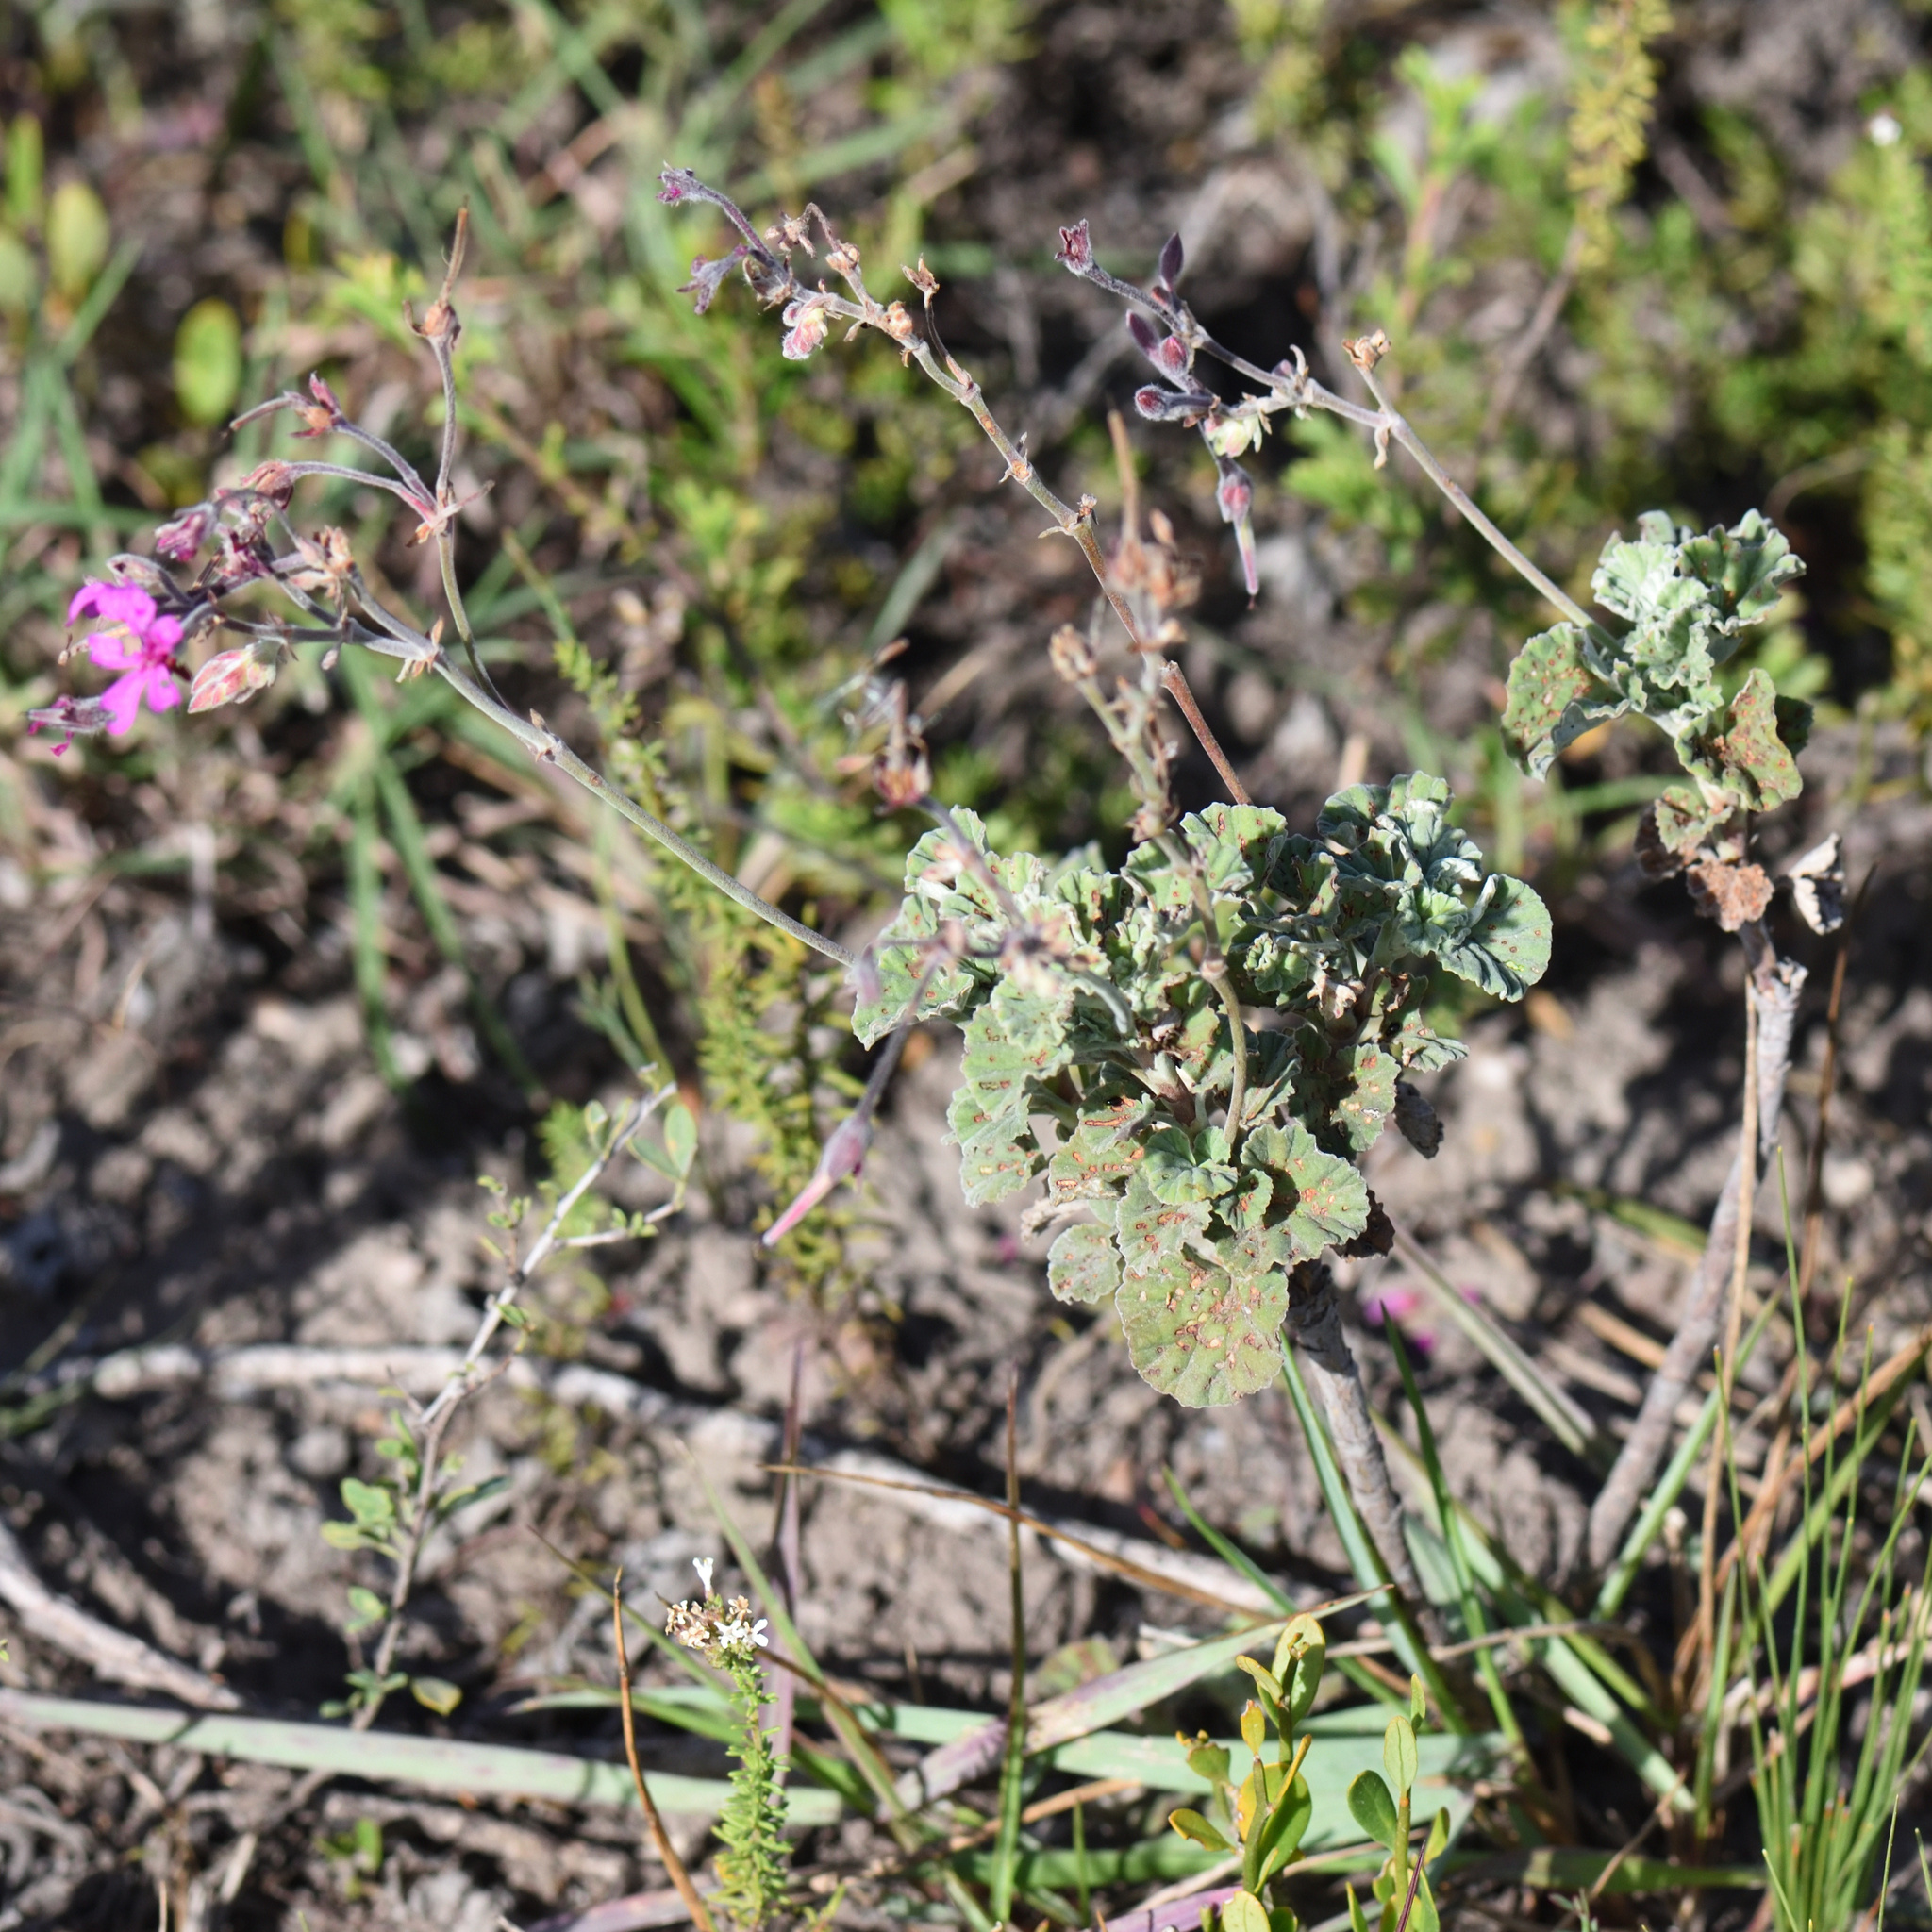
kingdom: Plantae
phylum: Tracheophyta
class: Magnoliopsida
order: Geraniales
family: Geraniaceae
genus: Pelargonium
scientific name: Pelargonium reniforme
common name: Kidney-leaf pelargonium
